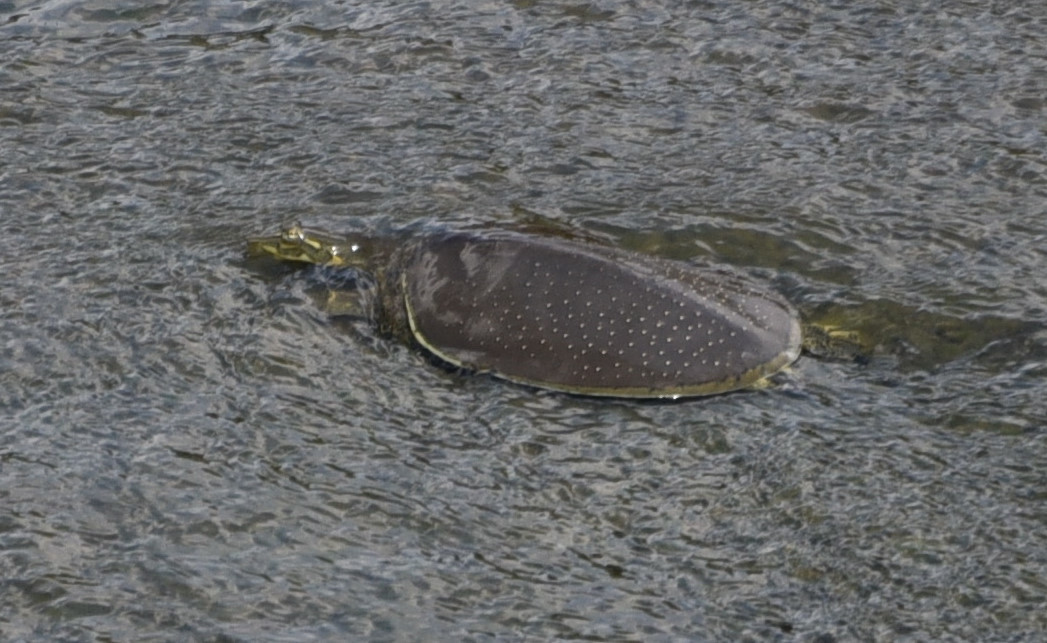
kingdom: Animalia
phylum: Chordata
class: Testudines
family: Trionychidae
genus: Apalone
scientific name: Apalone spinifera
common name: Spiny softshell turtle
